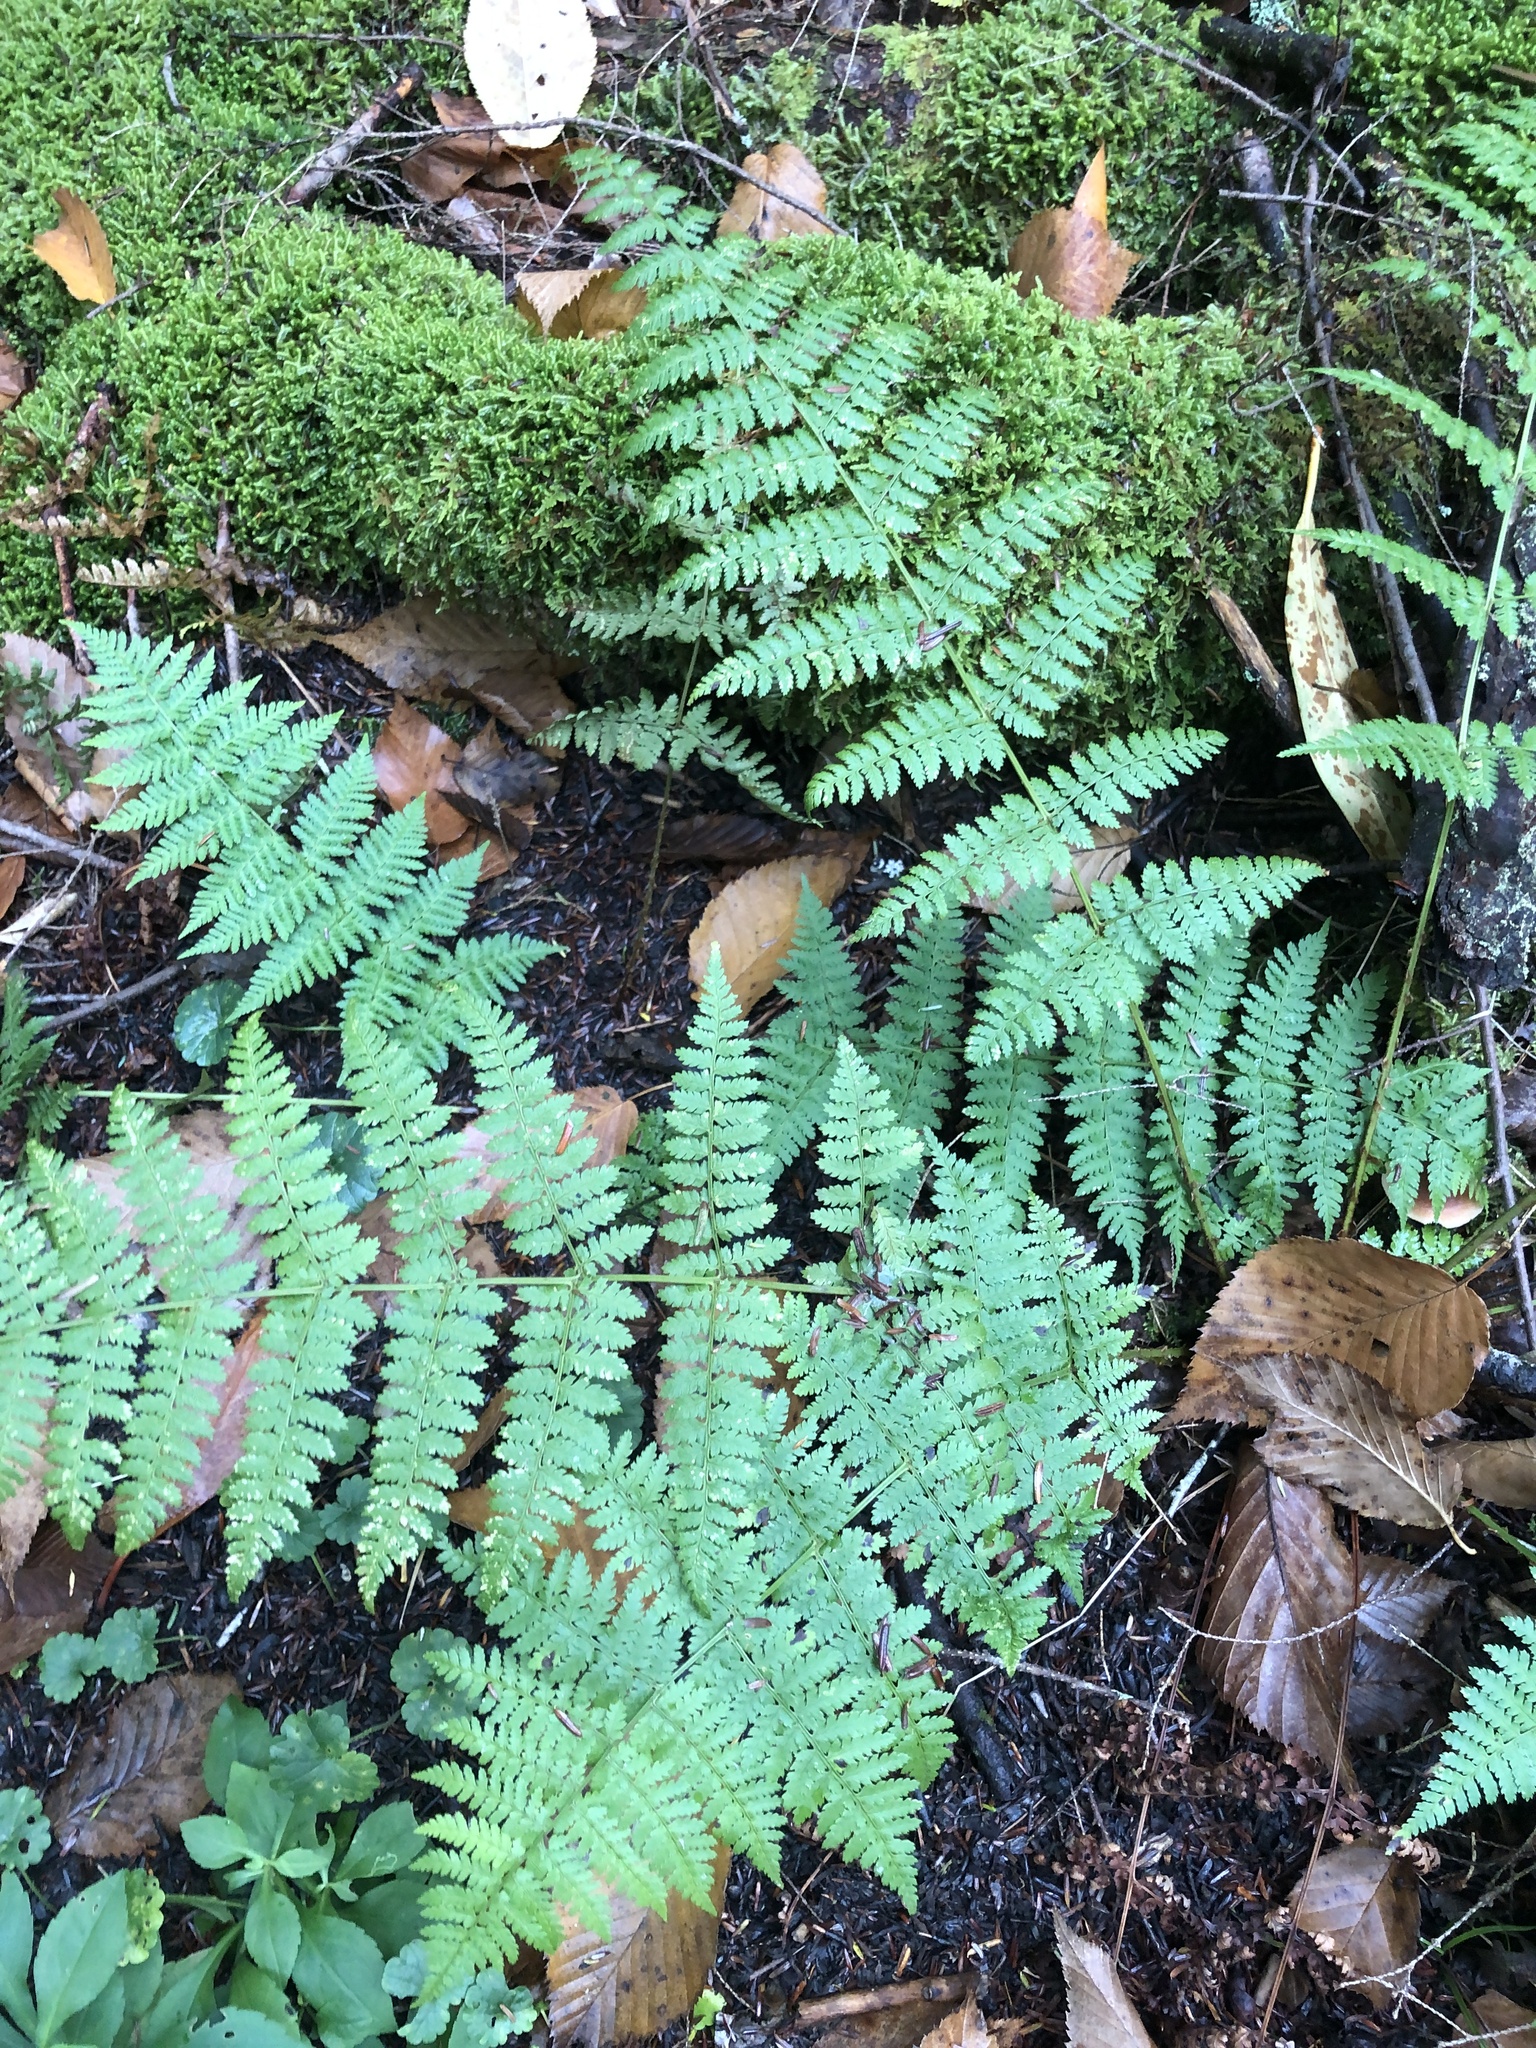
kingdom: Plantae
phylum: Tracheophyta
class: Polypodiopsida
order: Polypodiales
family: Dryopteridaceae
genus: Dryopteris
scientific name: Dryopteris intermedia
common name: Evergreen wood fern
